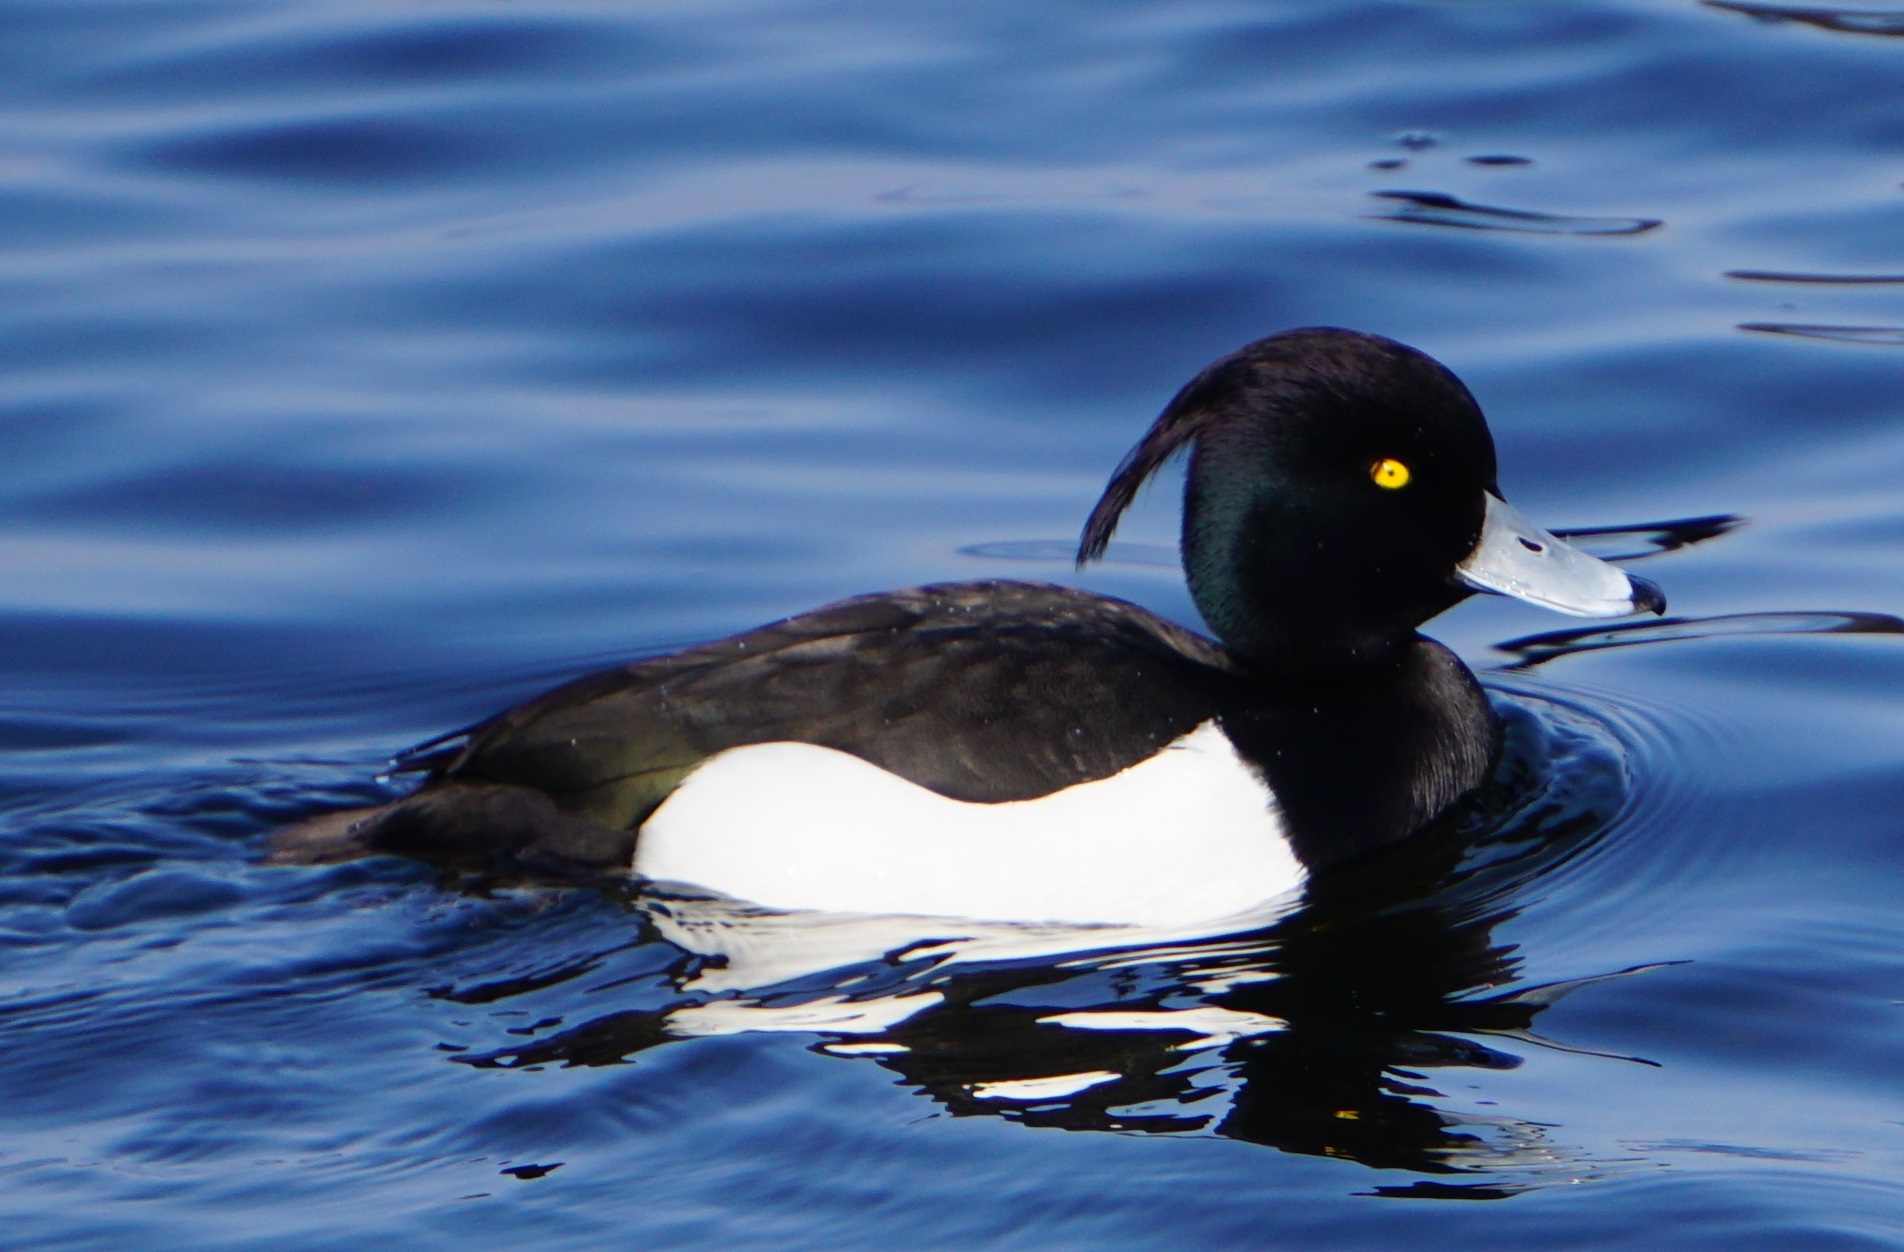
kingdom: Animalia
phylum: Chordata
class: Aves
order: Anseriformes
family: Anatidae
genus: Aythya
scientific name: Aythya fuligula
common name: Tufted duck
